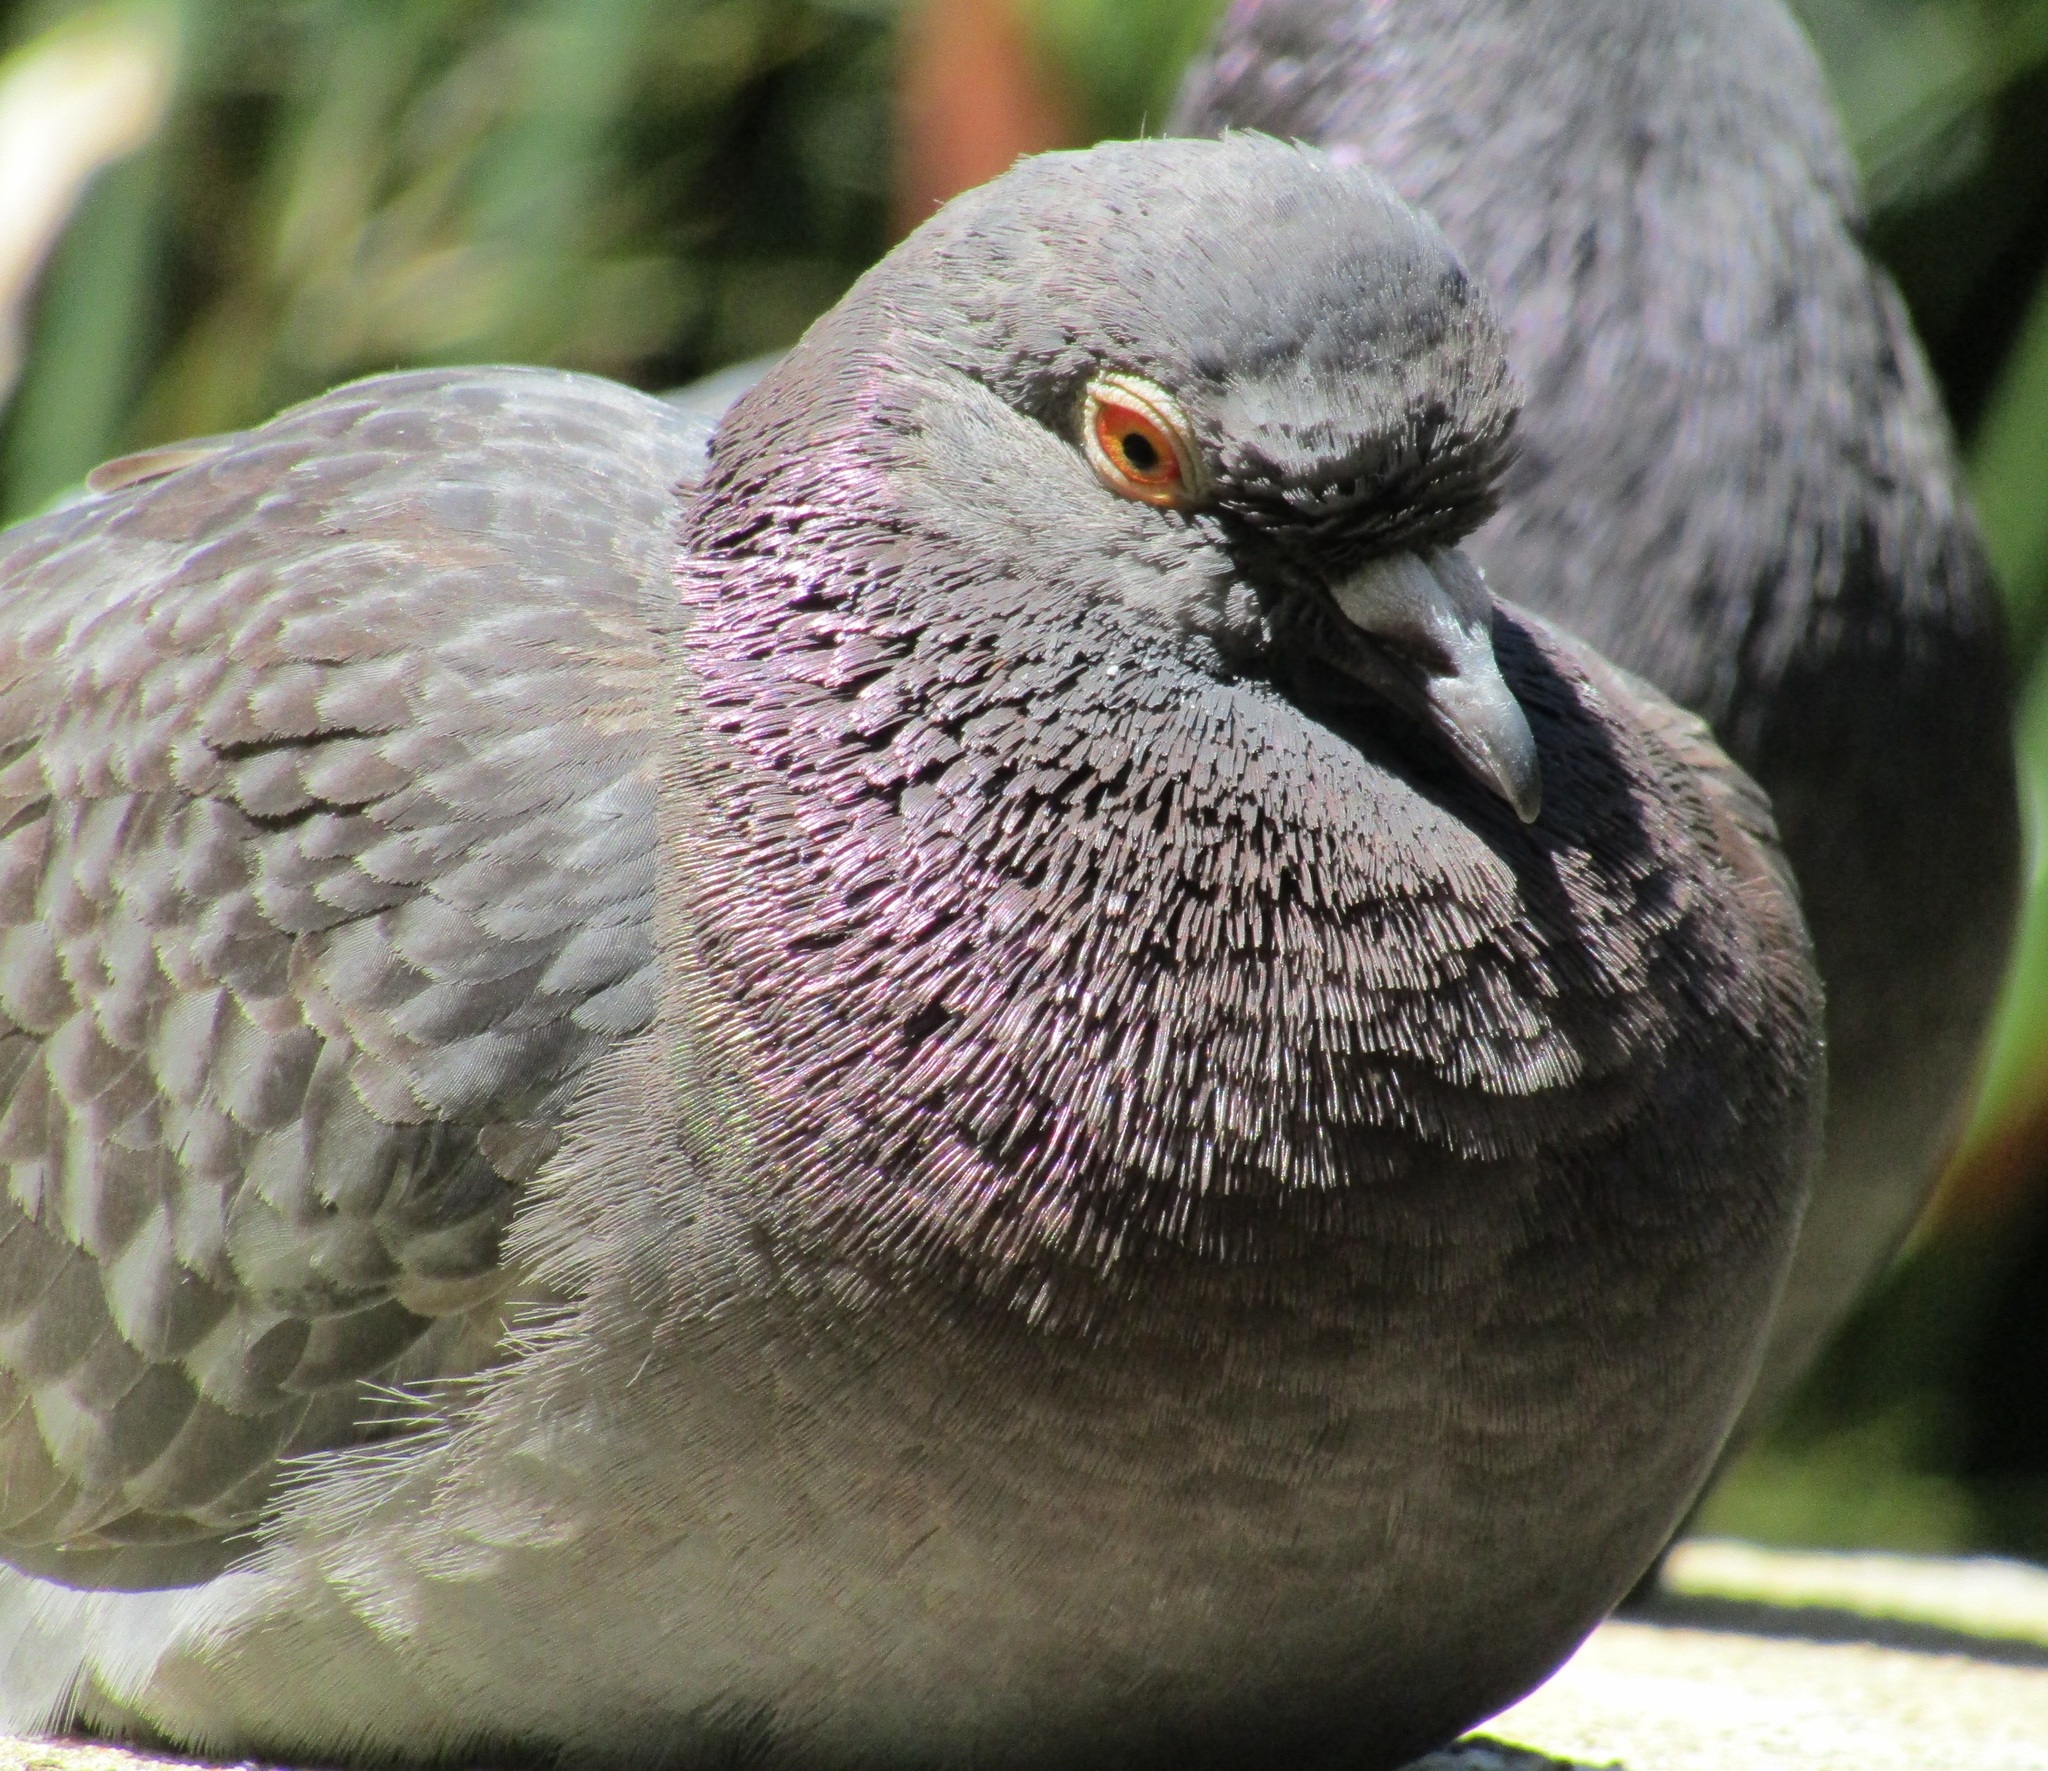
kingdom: Animalia
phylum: Chordata
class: Aves
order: Columbiformes
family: Columbidae
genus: Columba
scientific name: Columba livia
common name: Rock pigeon
